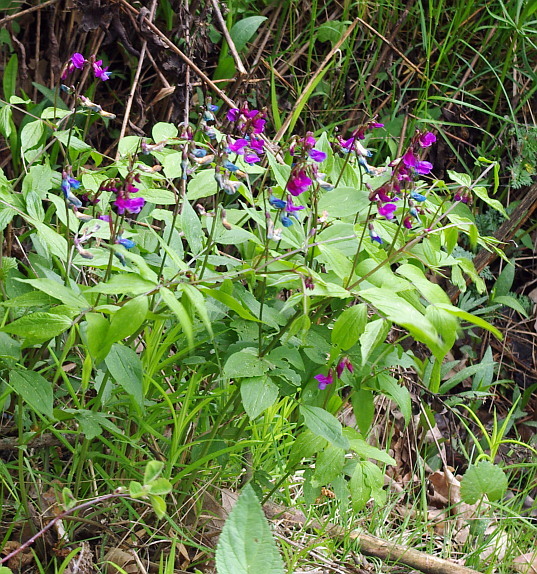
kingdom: Plantae
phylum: Tracheophyta
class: Magnoliopsida
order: Fabales
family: Fabaceae
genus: Lathyrus
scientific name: Lathyrus vernus
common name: Spring pea
